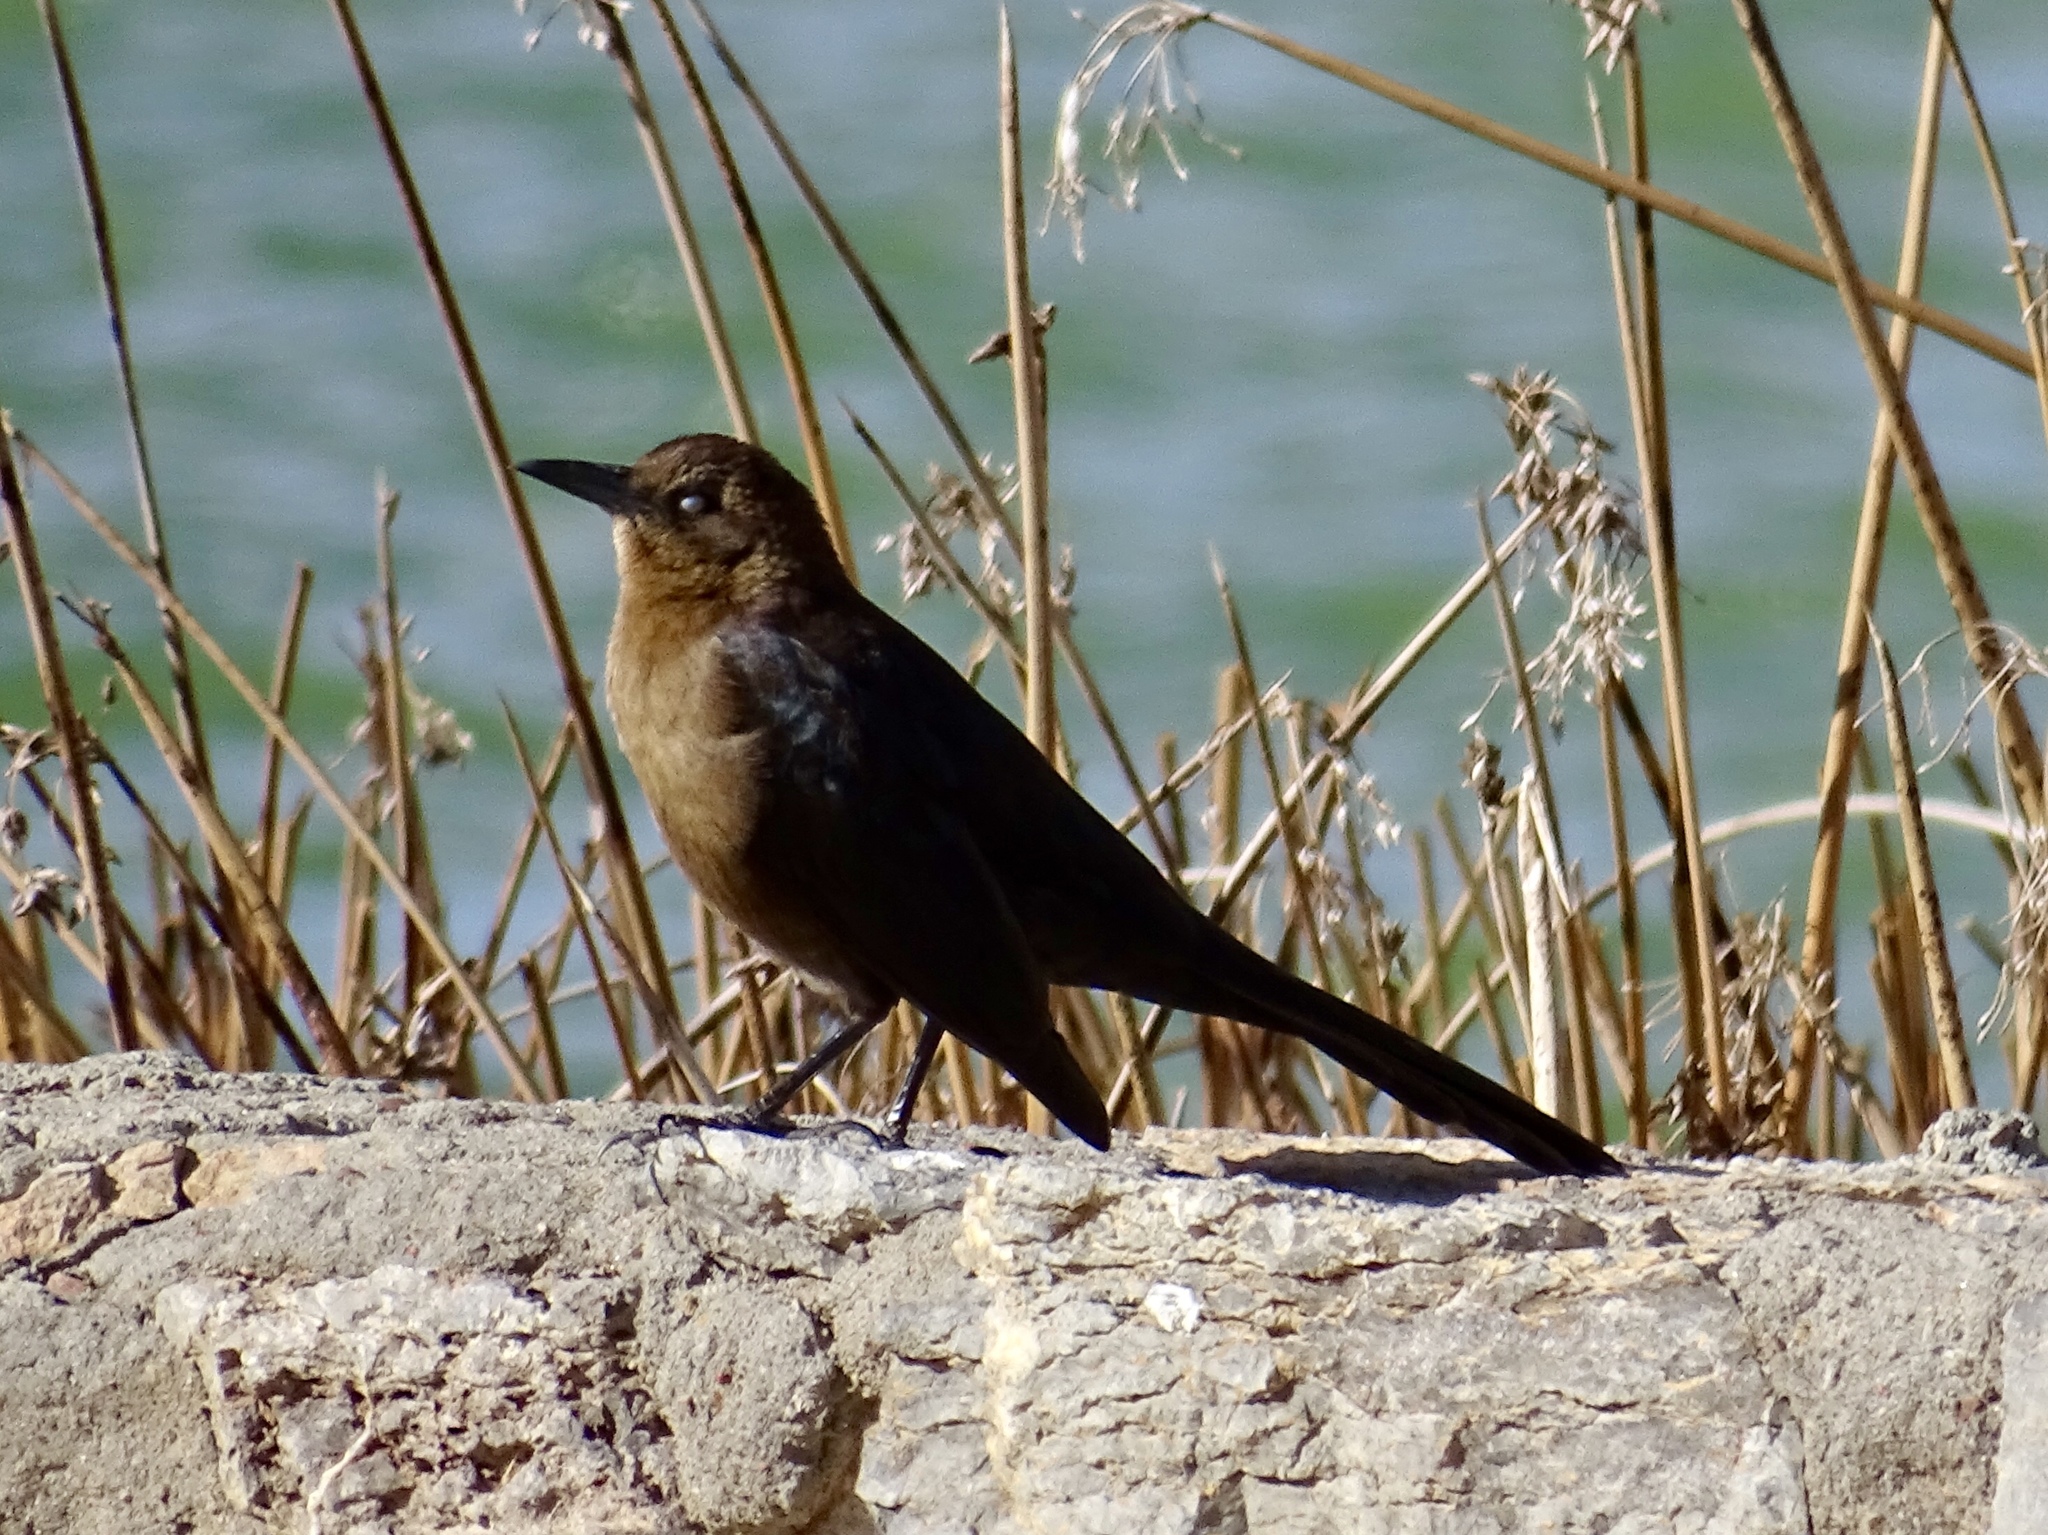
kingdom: Animalia
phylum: Chordata
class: Aves
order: Passeriformes
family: Icteridae
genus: Quiscalus
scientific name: Quiscalus mexicanus
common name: Great-tailed grackle
